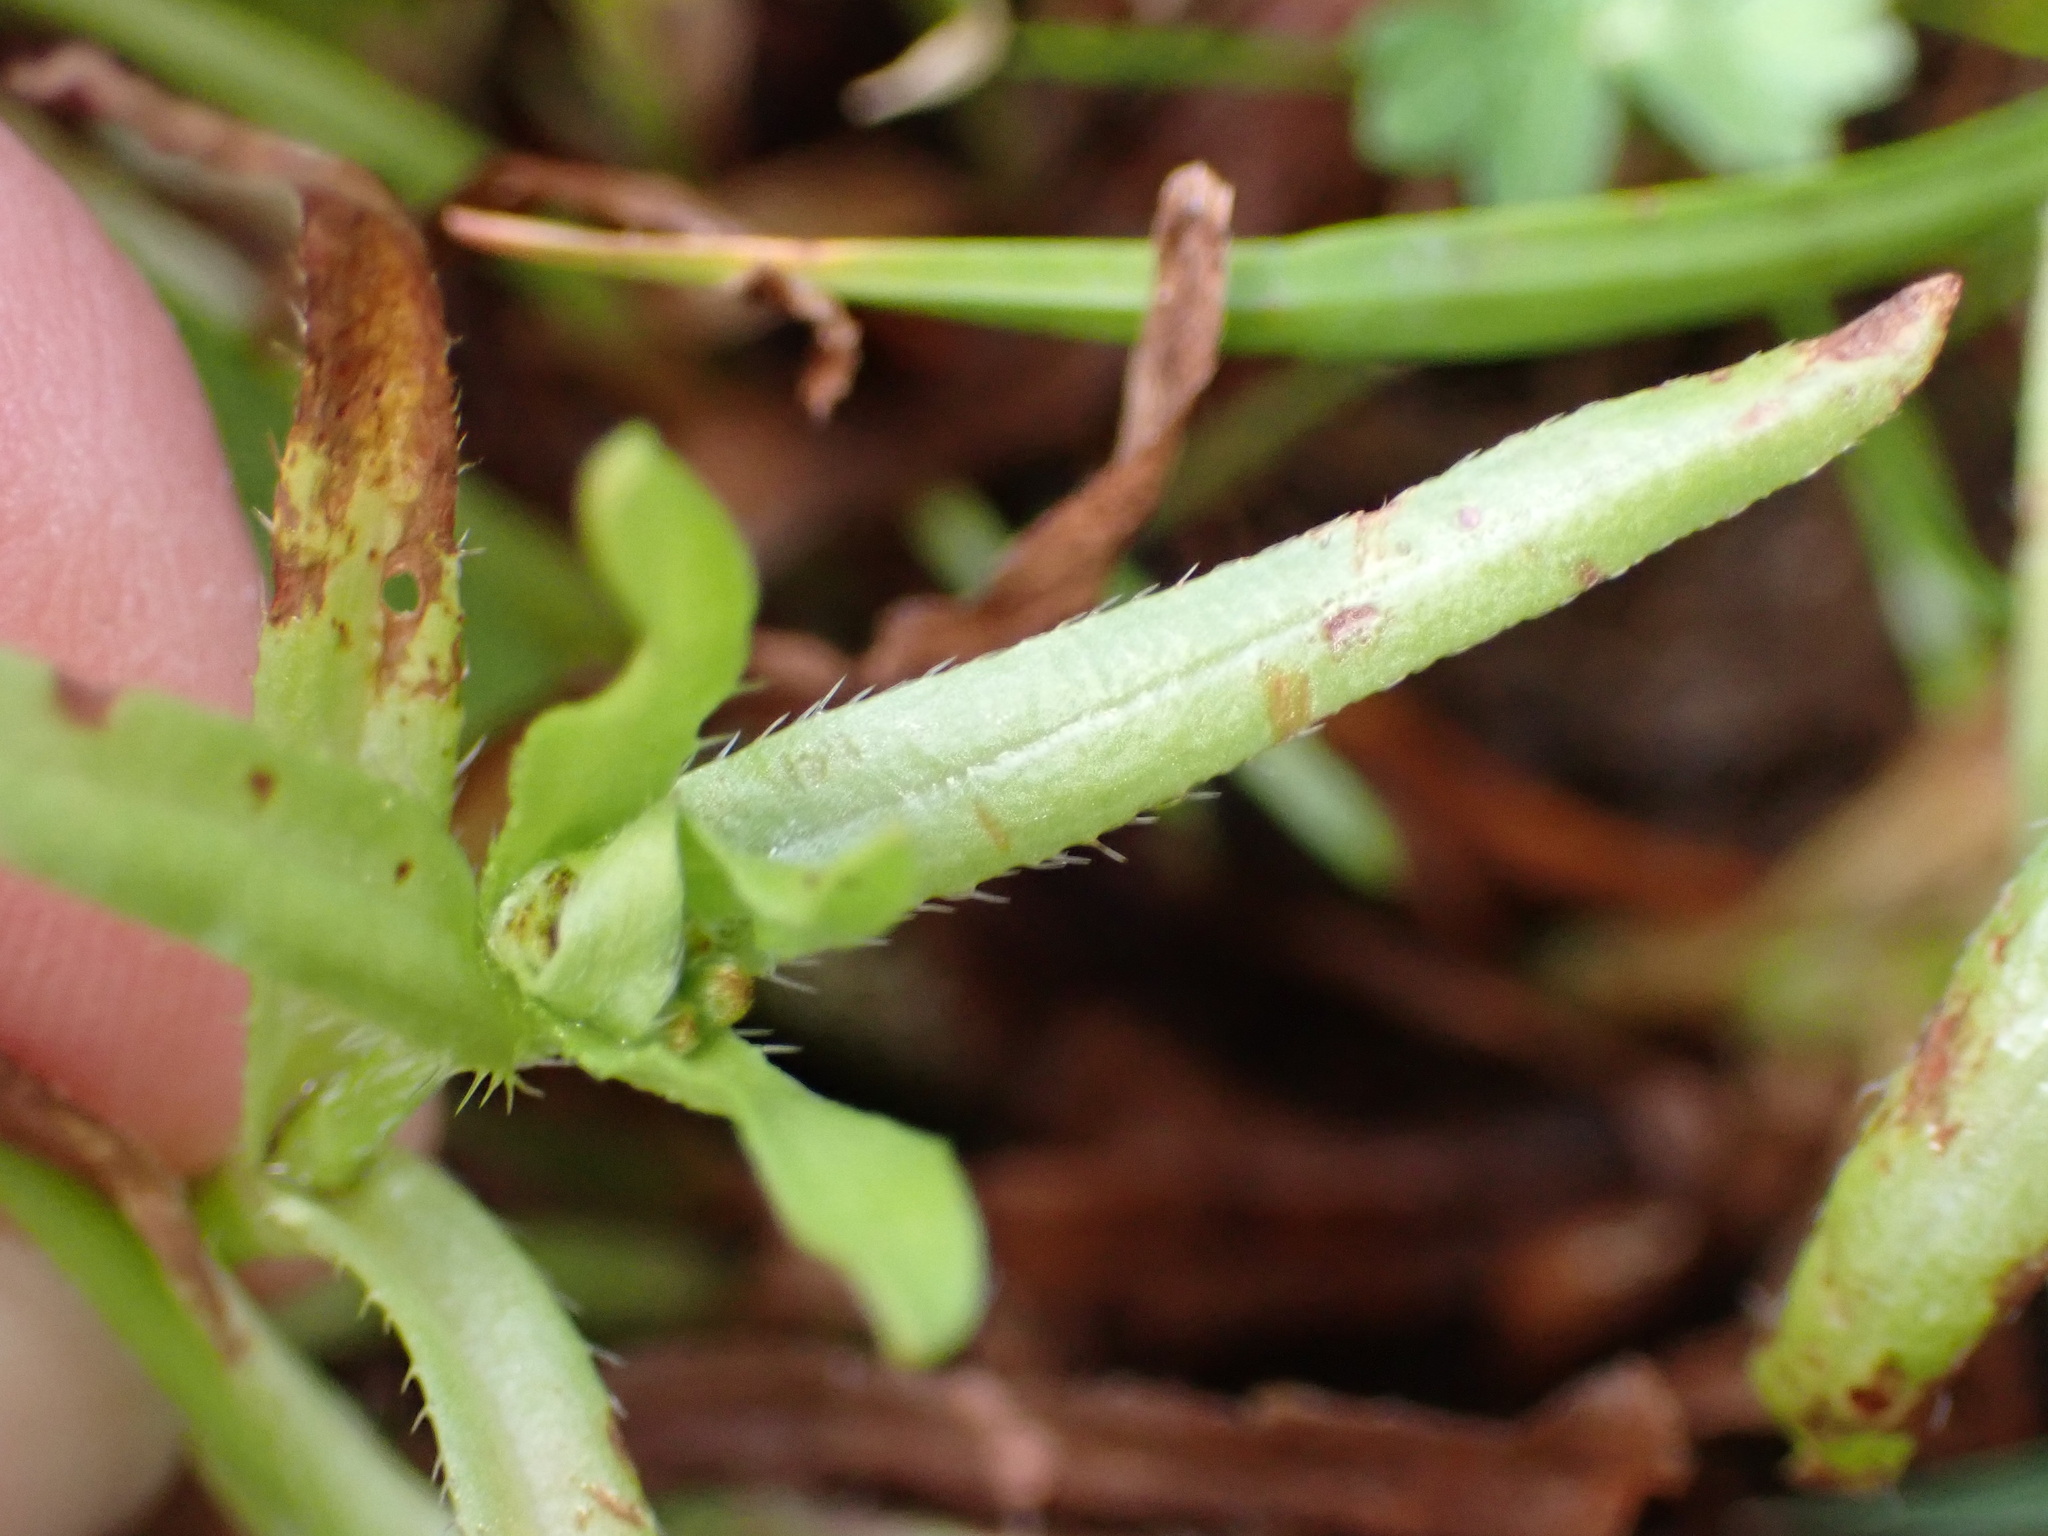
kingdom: Plantae
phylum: Tracheophyta
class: Magnoliopsida
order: Boraginales
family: Boraginaceae
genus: Plagiobothrys
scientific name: Plagiobothrys chorisianus
